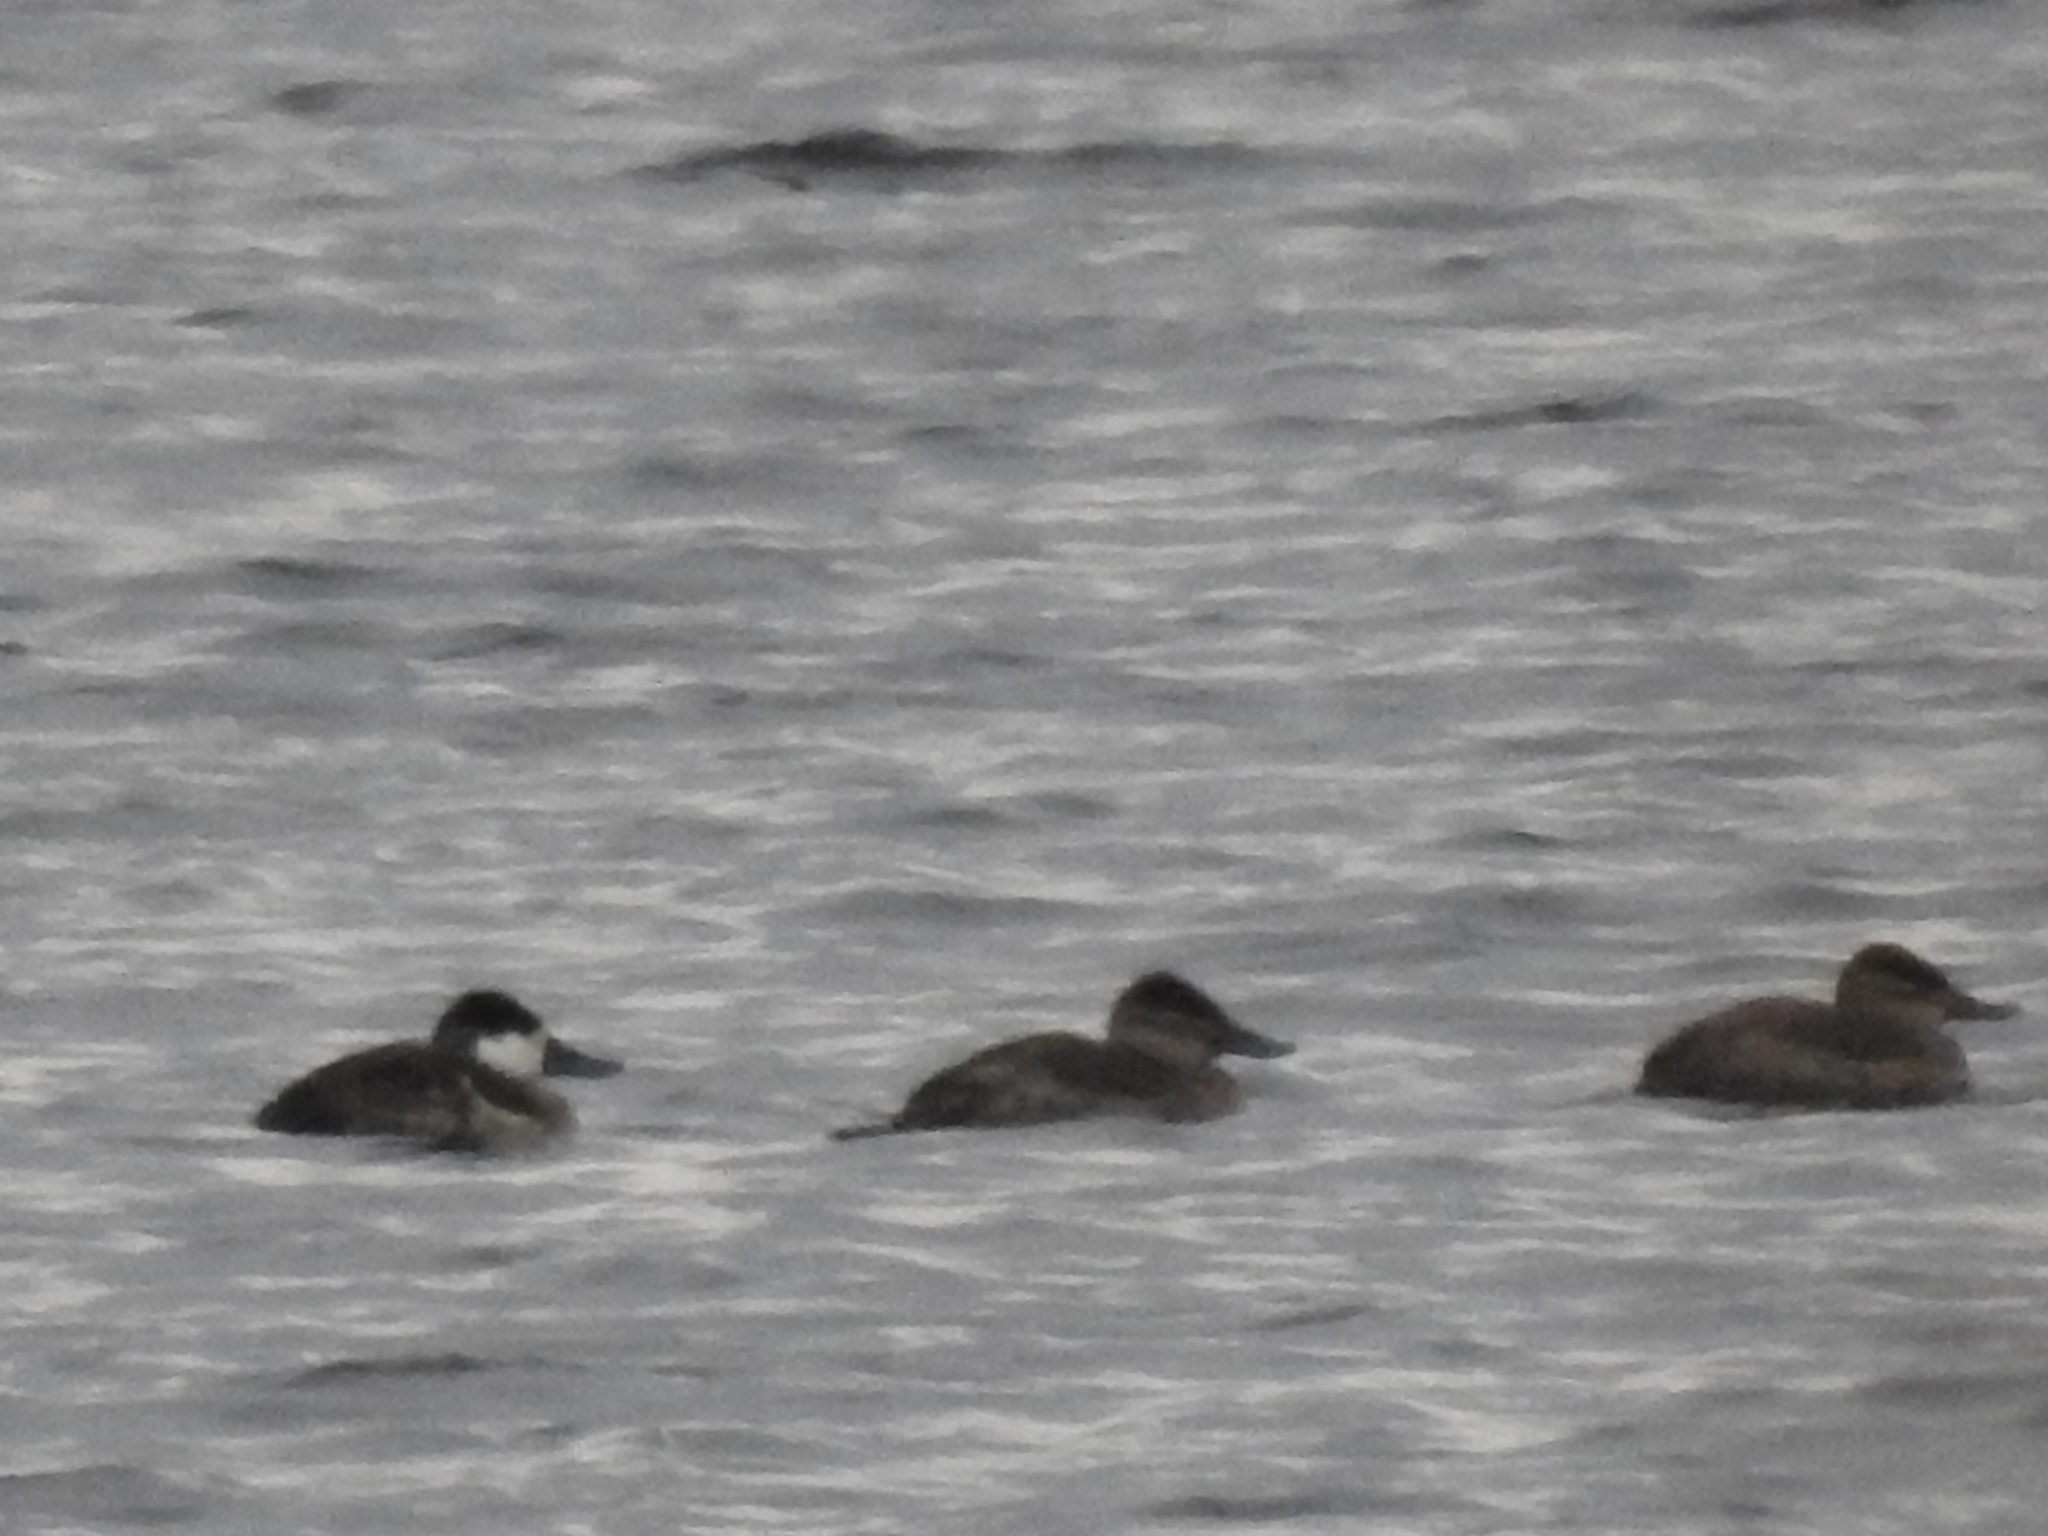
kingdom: Animalia
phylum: Chordata
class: Aves
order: Anseriformes
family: Anatidae
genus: Oxyura
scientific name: Oxyura jamaicensis
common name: Ruddy duck
